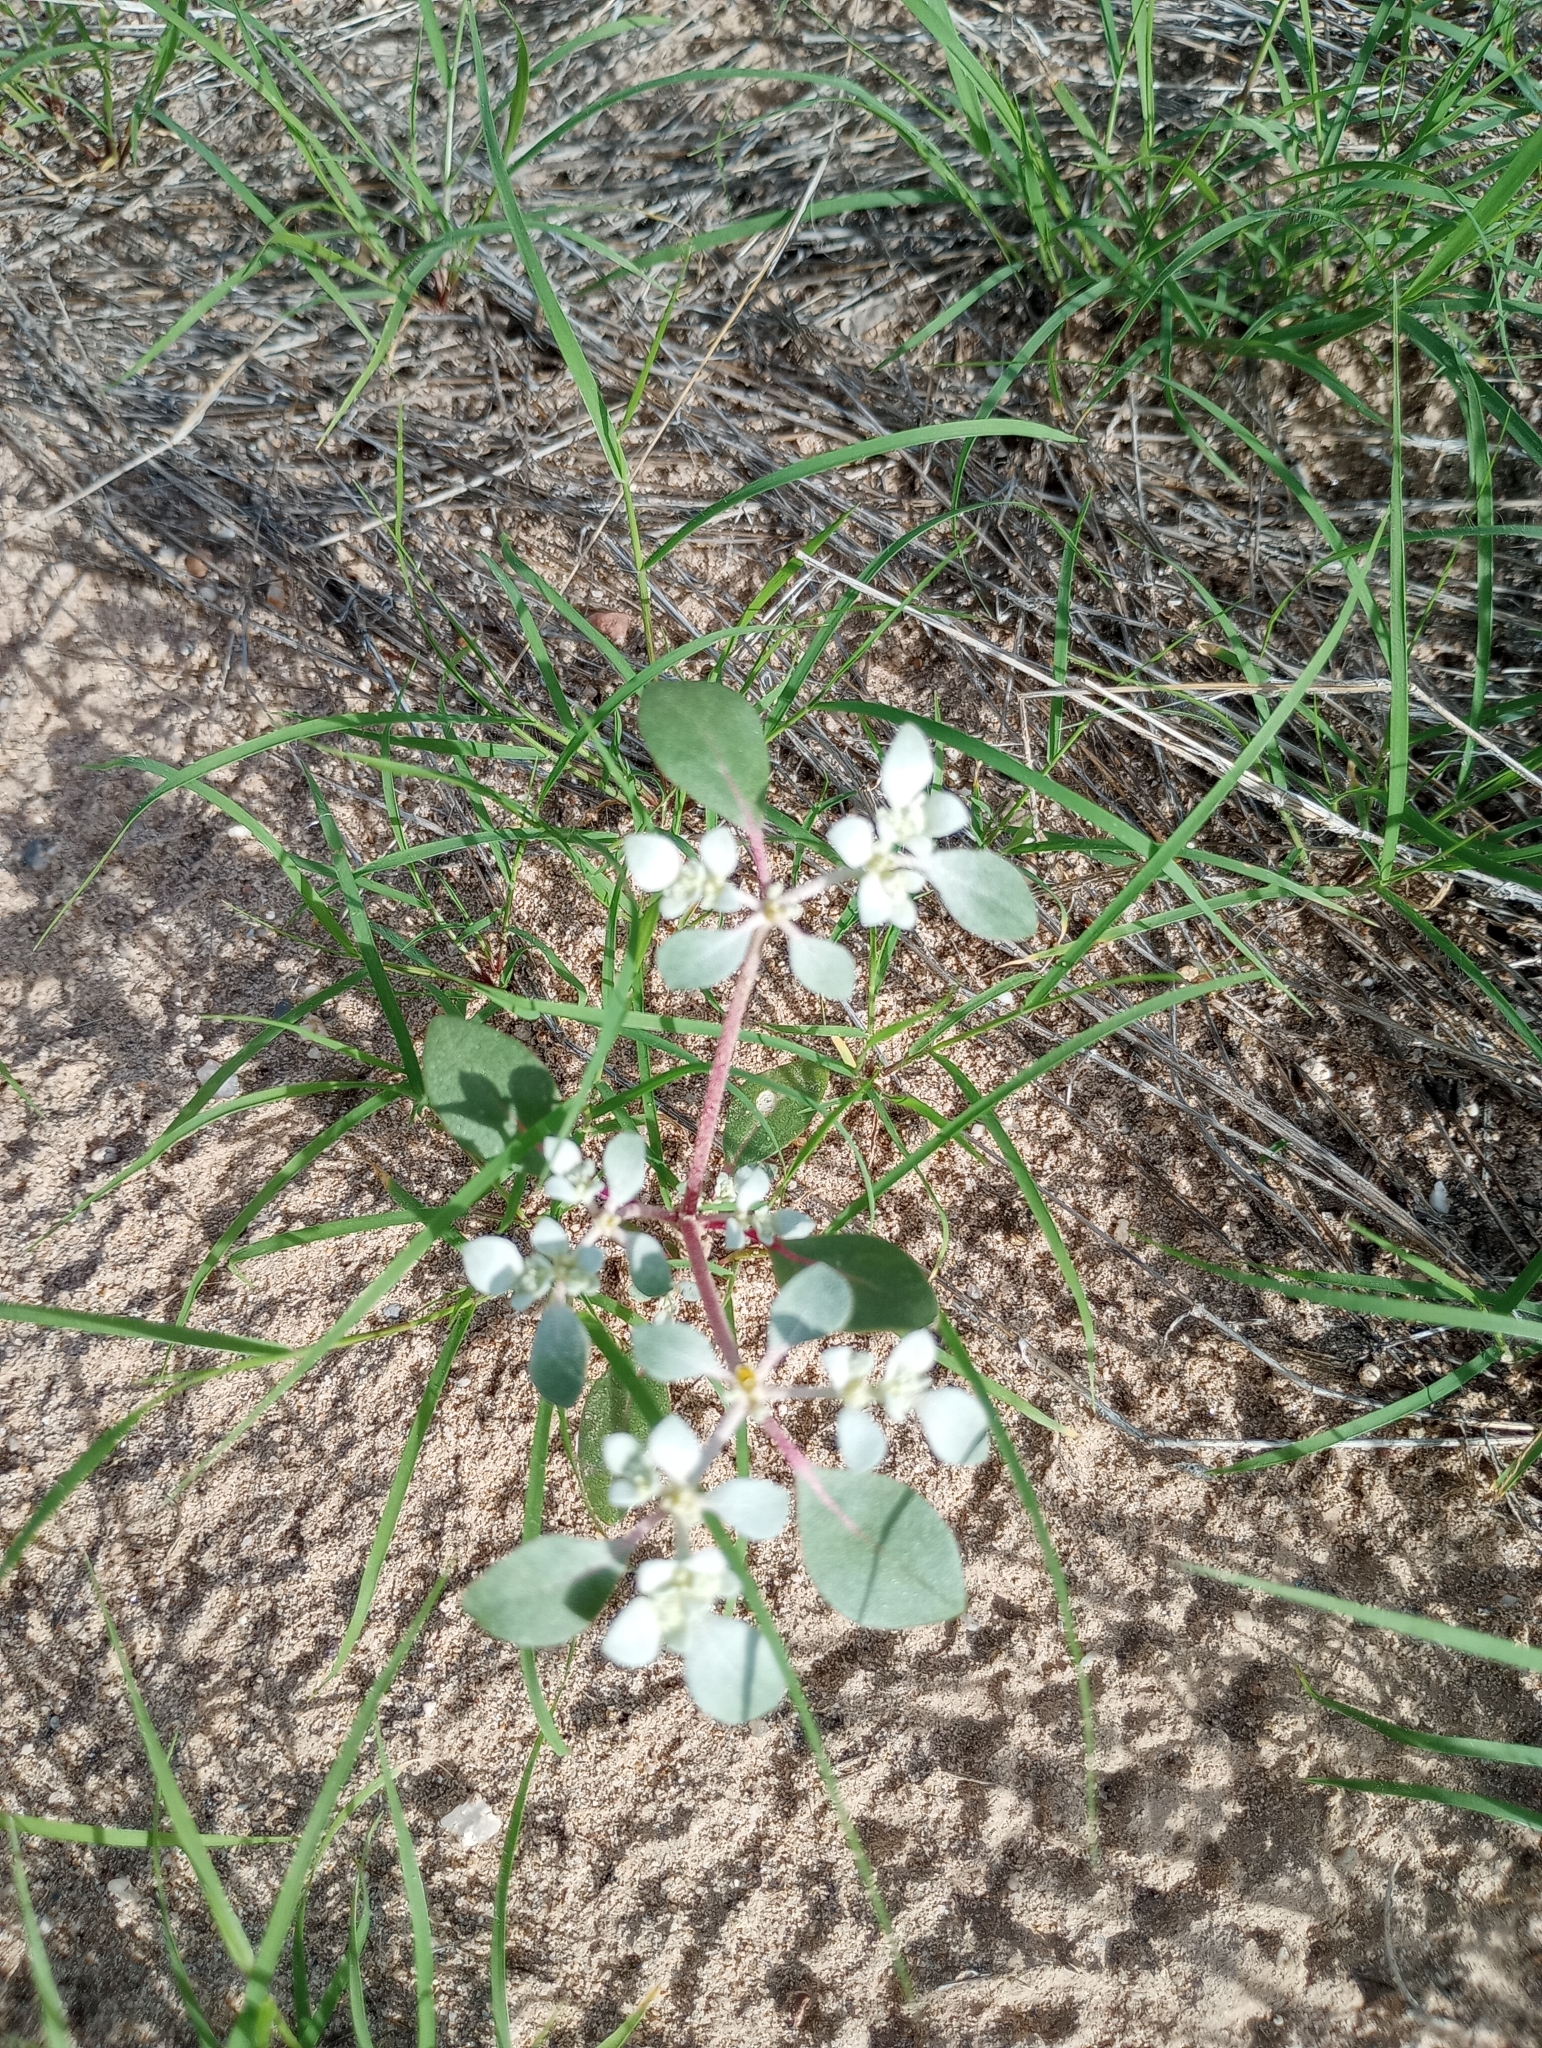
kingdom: Plantae
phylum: Tracheophyta
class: Magnoliopsida
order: Caryophyllales
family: Amaranthaceae
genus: Tidestromia
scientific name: Tidestromia lanuginosa
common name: Woolly tidestromia
